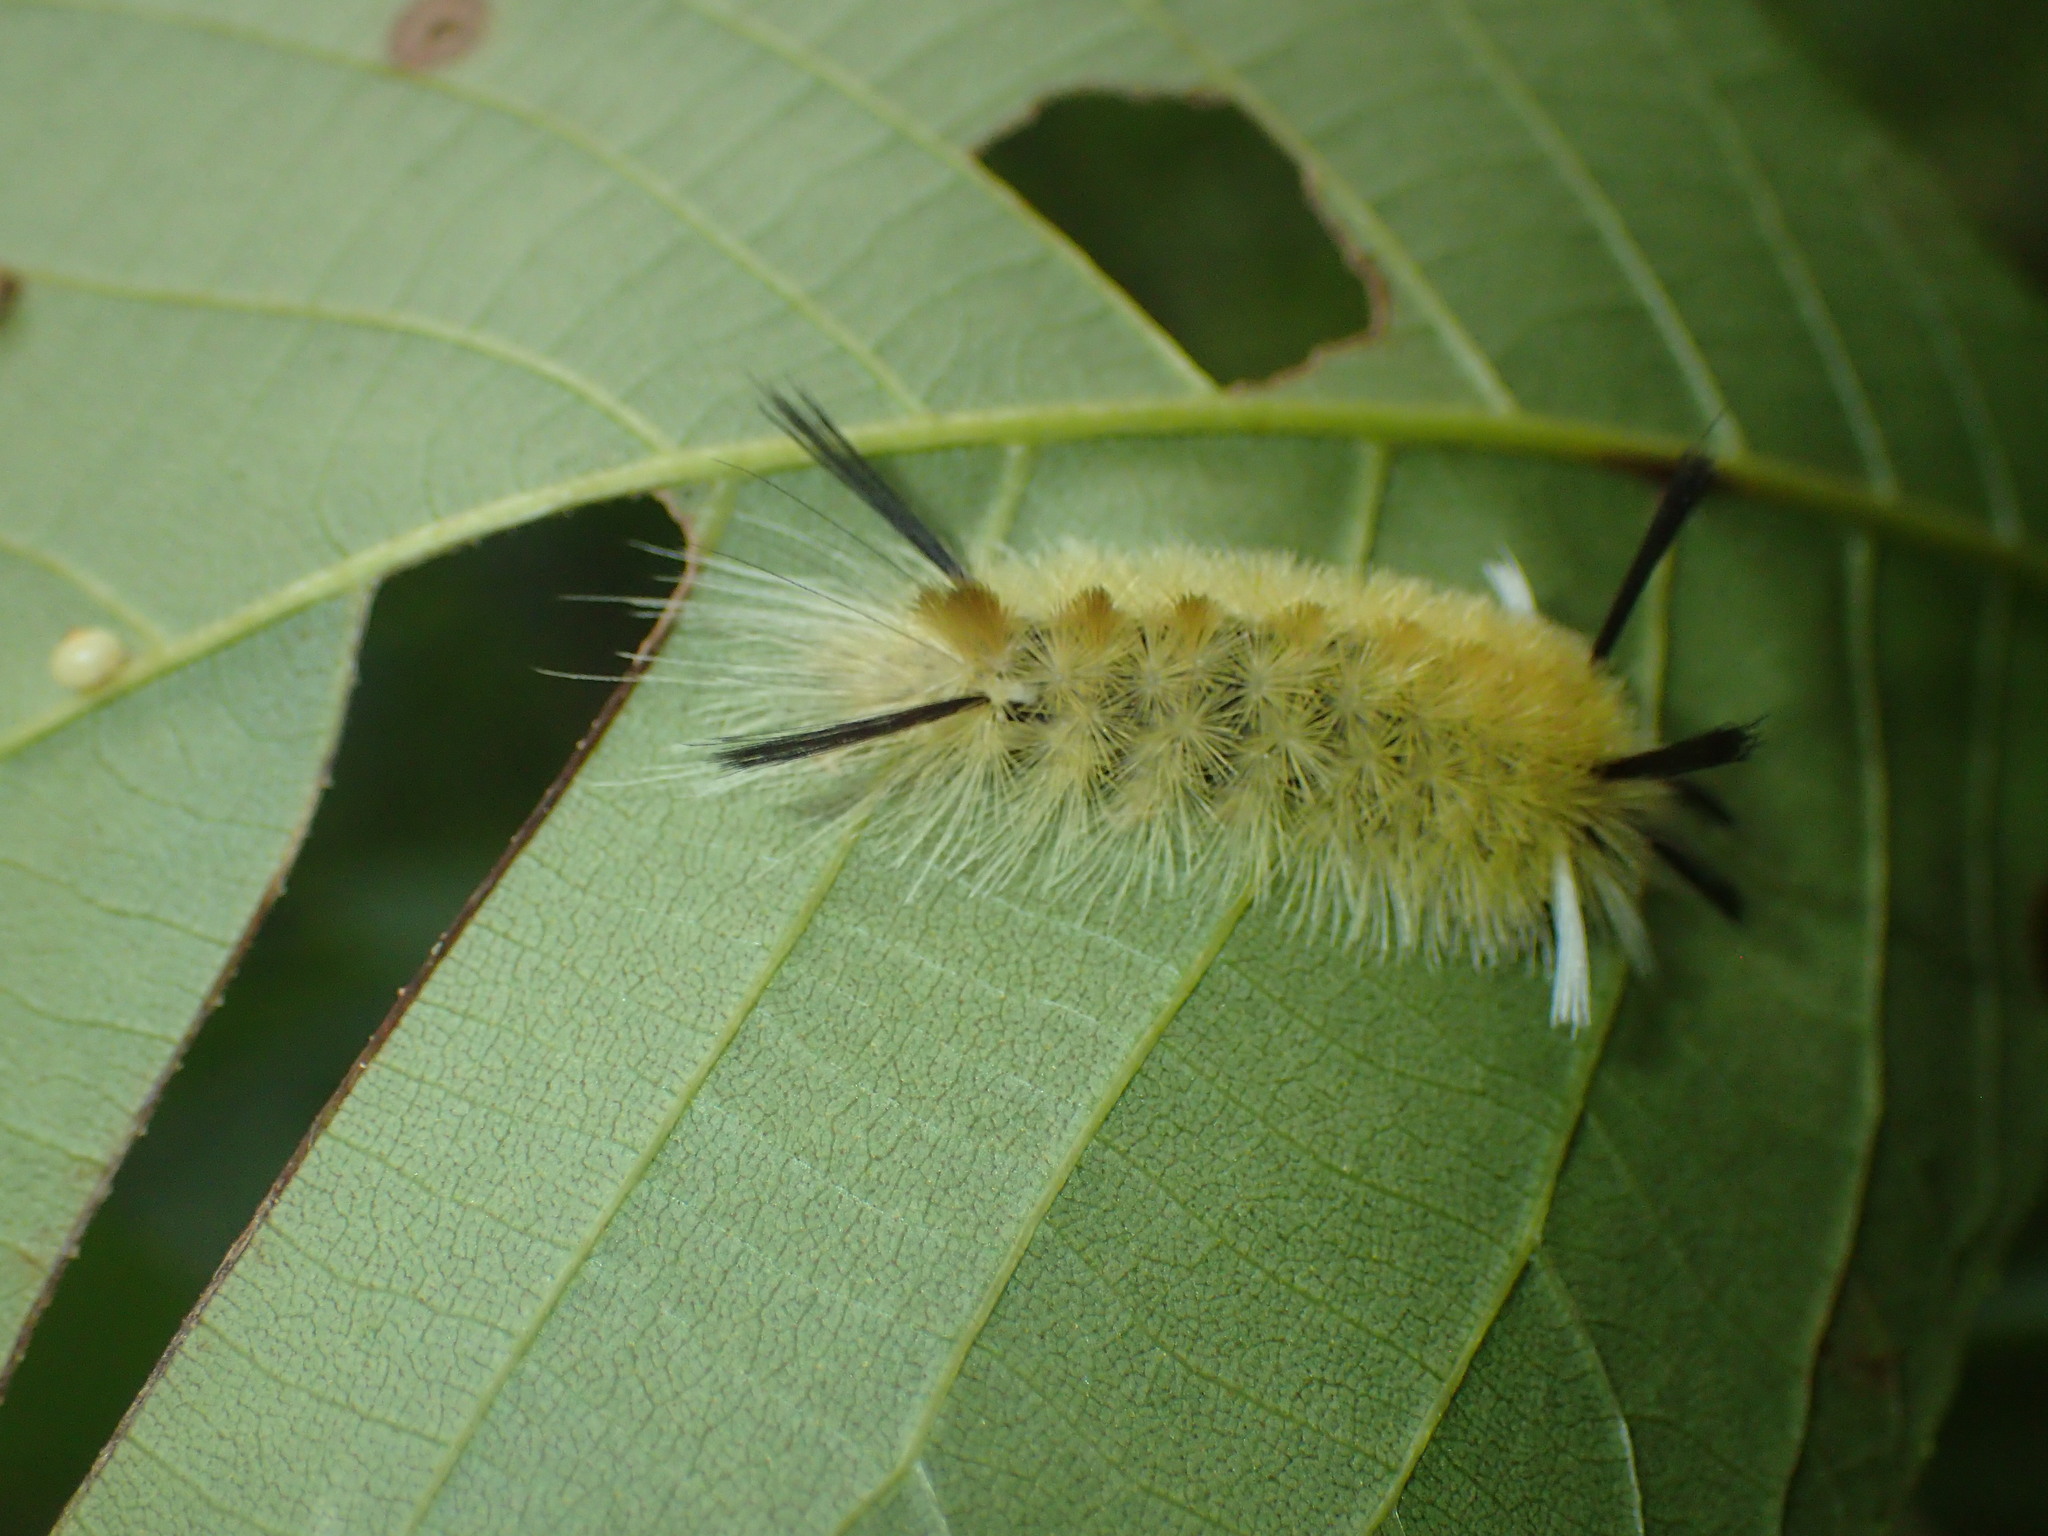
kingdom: Animalia
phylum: Arthropoda
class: Insecta
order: Lepidoptera
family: Erebidae
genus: Halysidota
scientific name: Halysidota tessellaris
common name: Banded tussock moth
